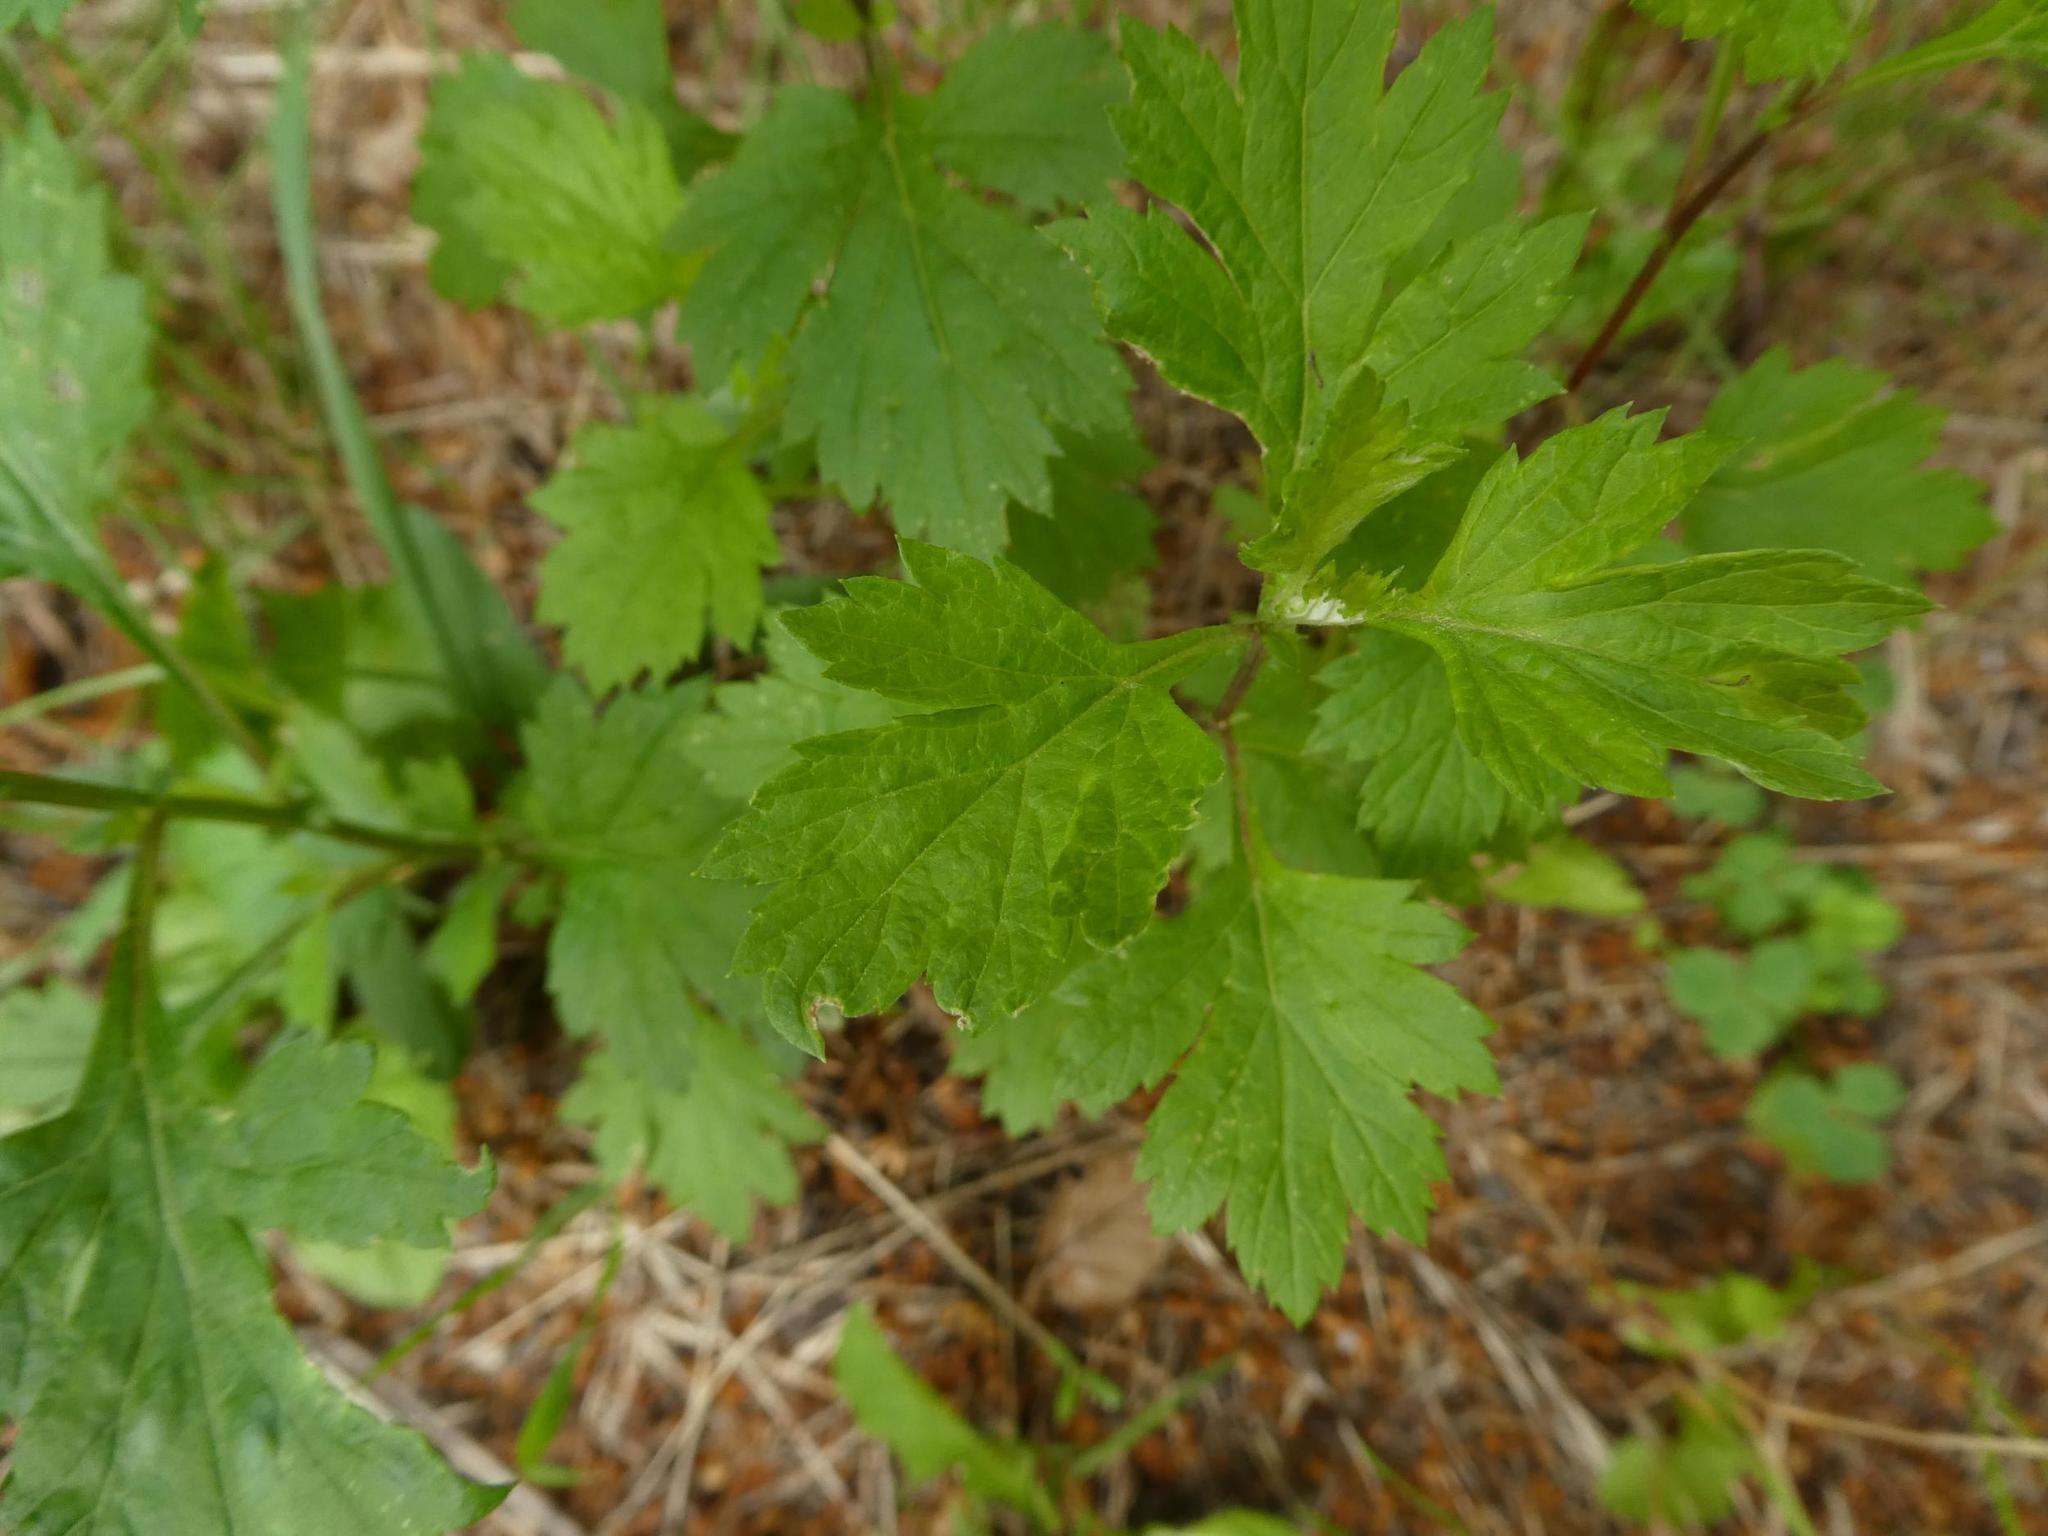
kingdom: Plantae
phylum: Tracheophyta
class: Magnoliopsida
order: Asterales
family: Asteraceae
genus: Artemisia
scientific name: Artemisia vulgaris
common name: Mugwort
